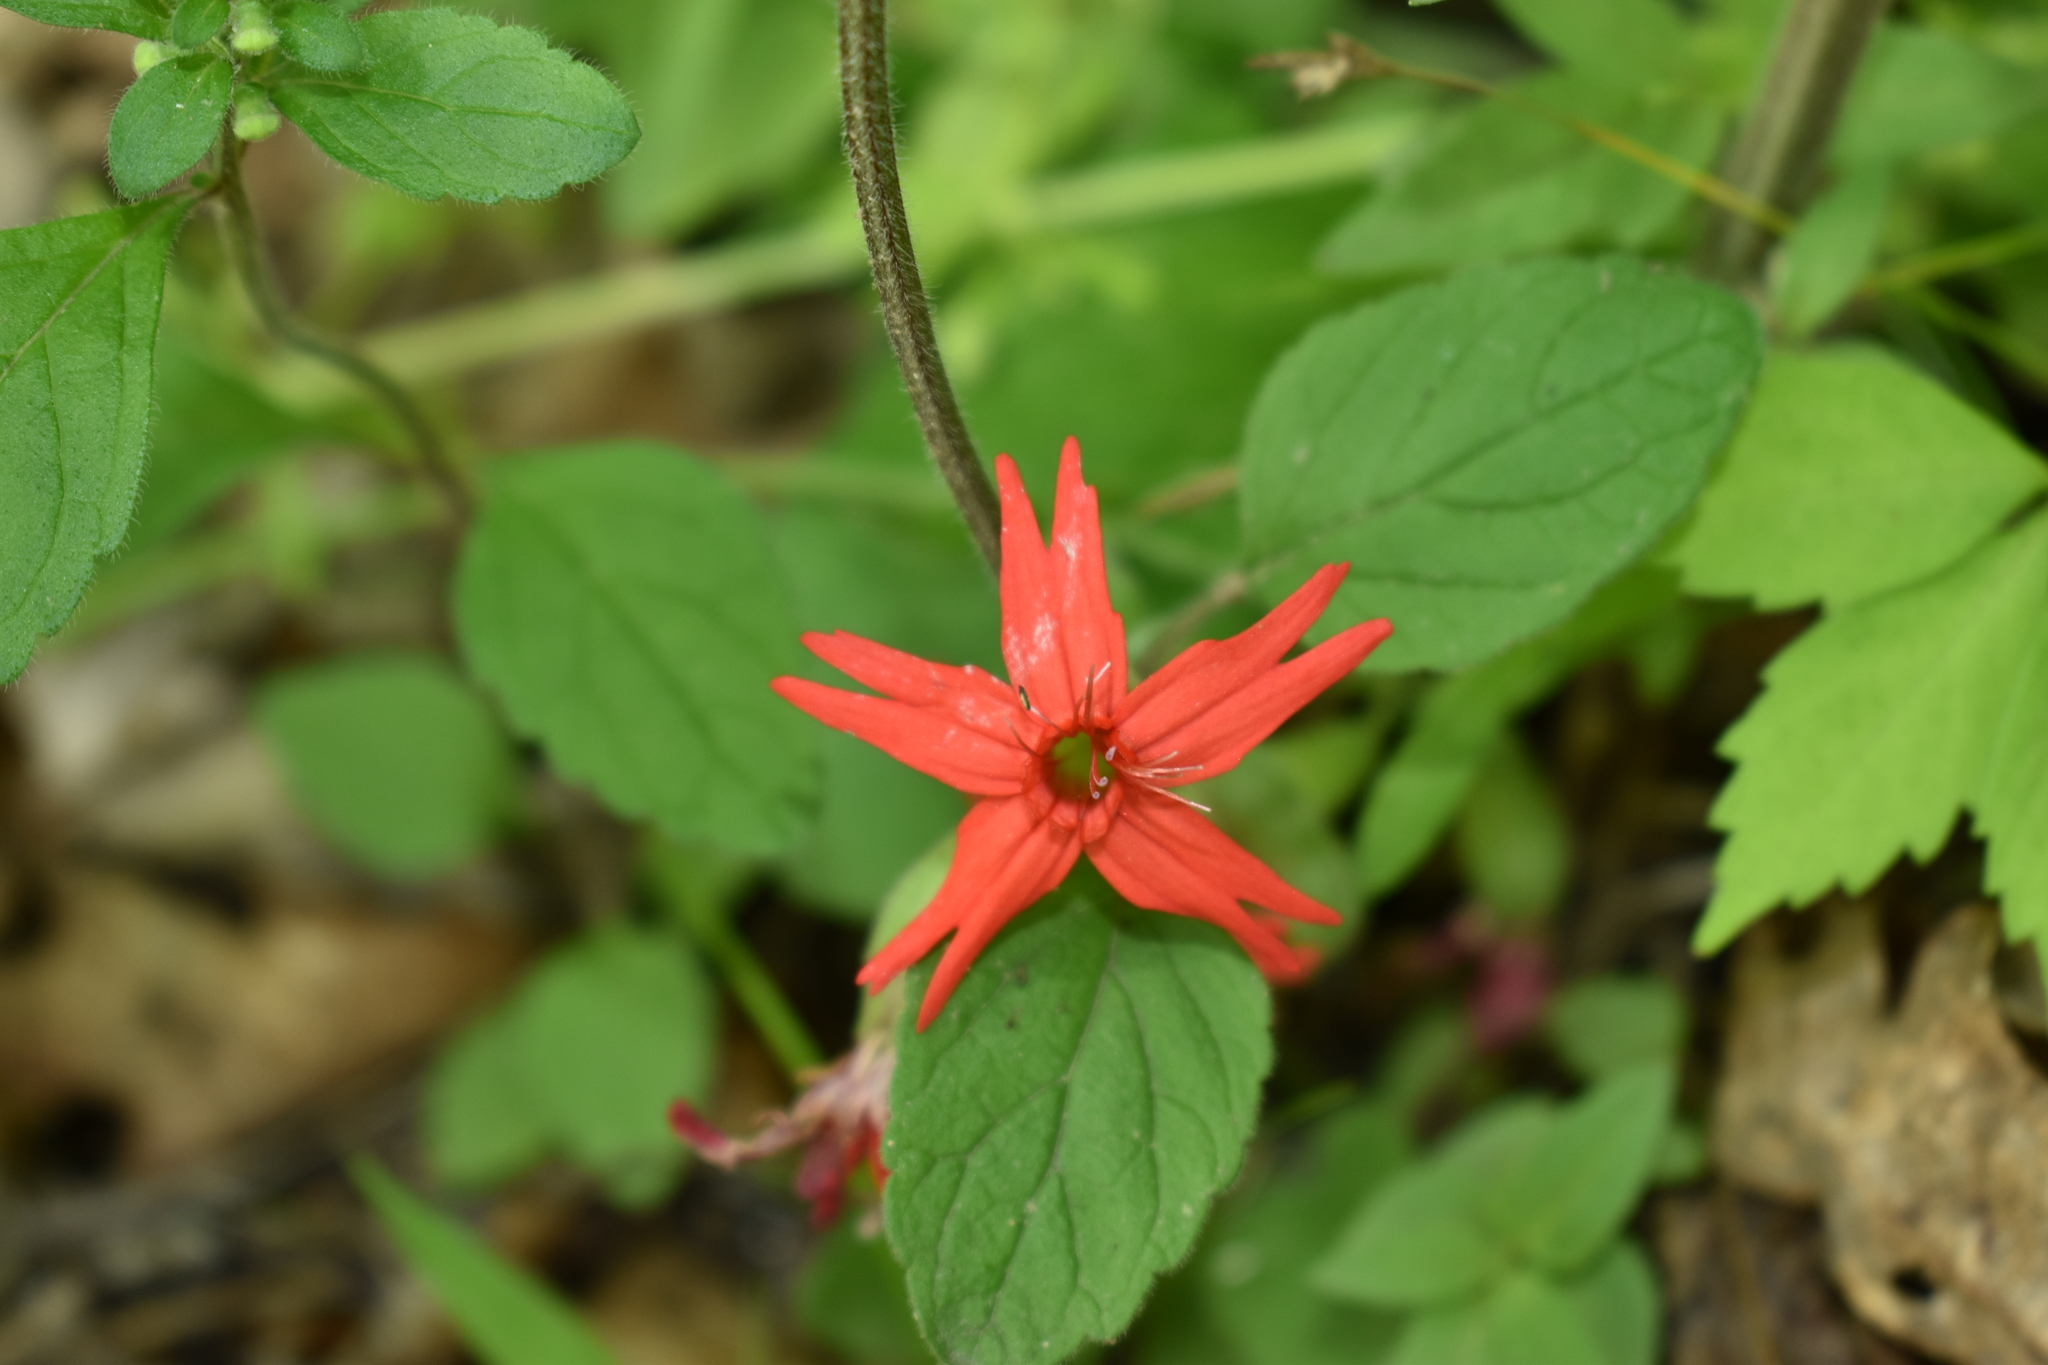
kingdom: Plantae
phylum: Tracheophyta
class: Magnoliopsida
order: Caryophyllales
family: Caryophyllaceae
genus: Silene
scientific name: Silene virginica
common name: Fire-pink
